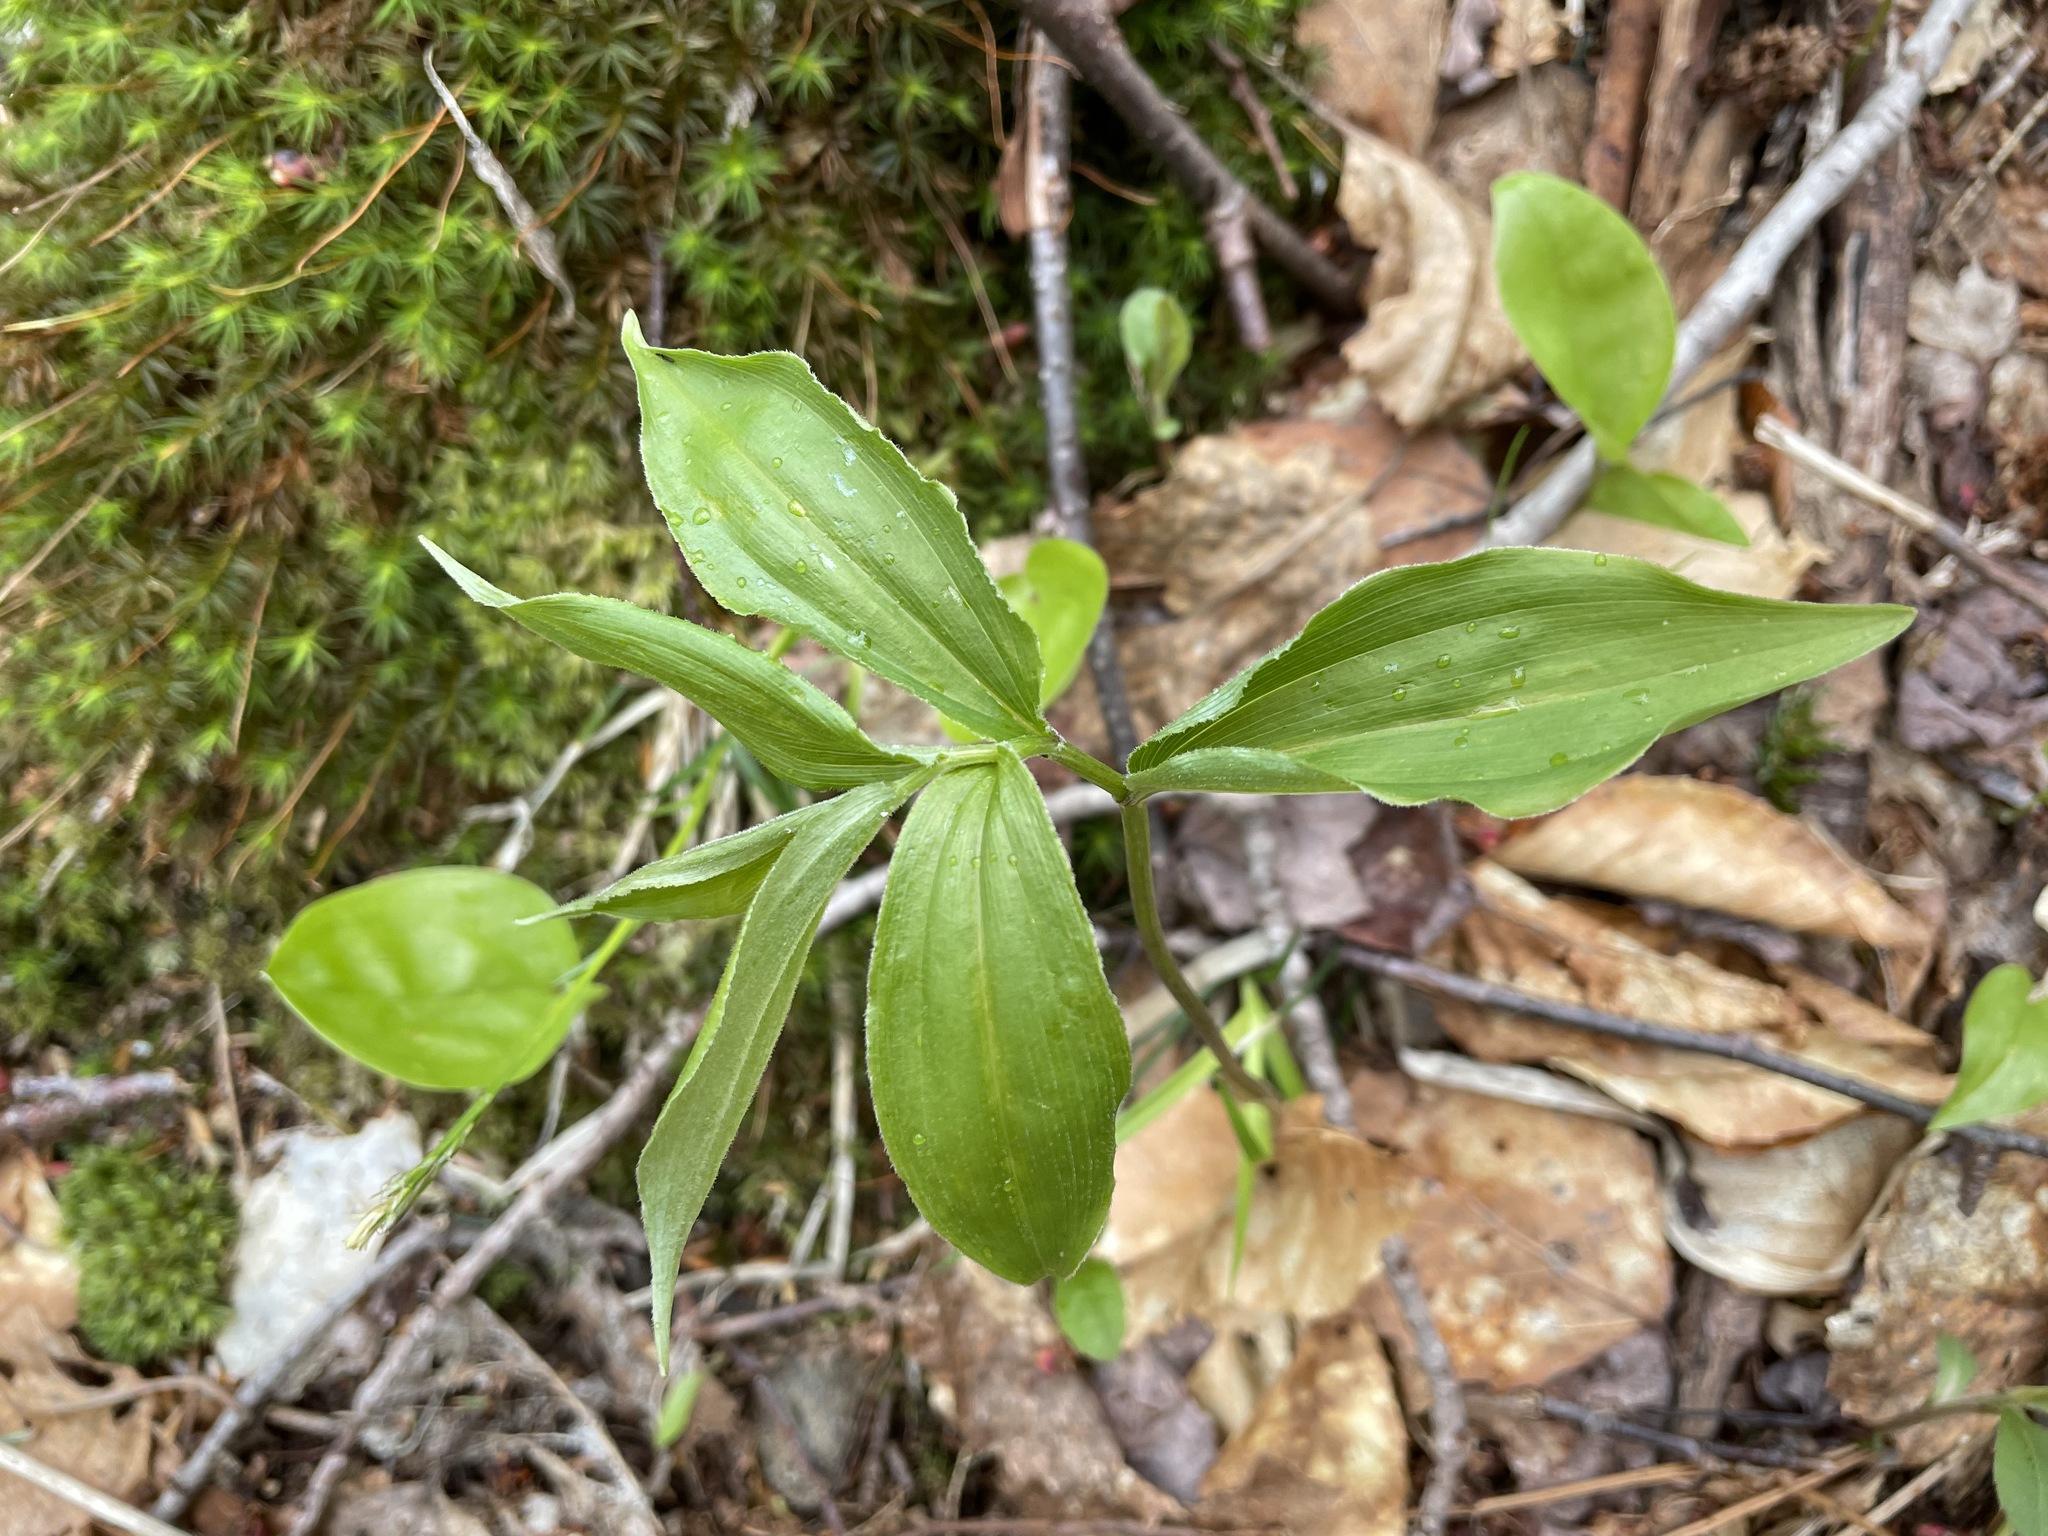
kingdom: Plantae
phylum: Tracheophyta
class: Liliopsida
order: Asparagales
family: Asparagaceae
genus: Maianthemum
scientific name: Maianthemum racemosum
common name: False spikenard
